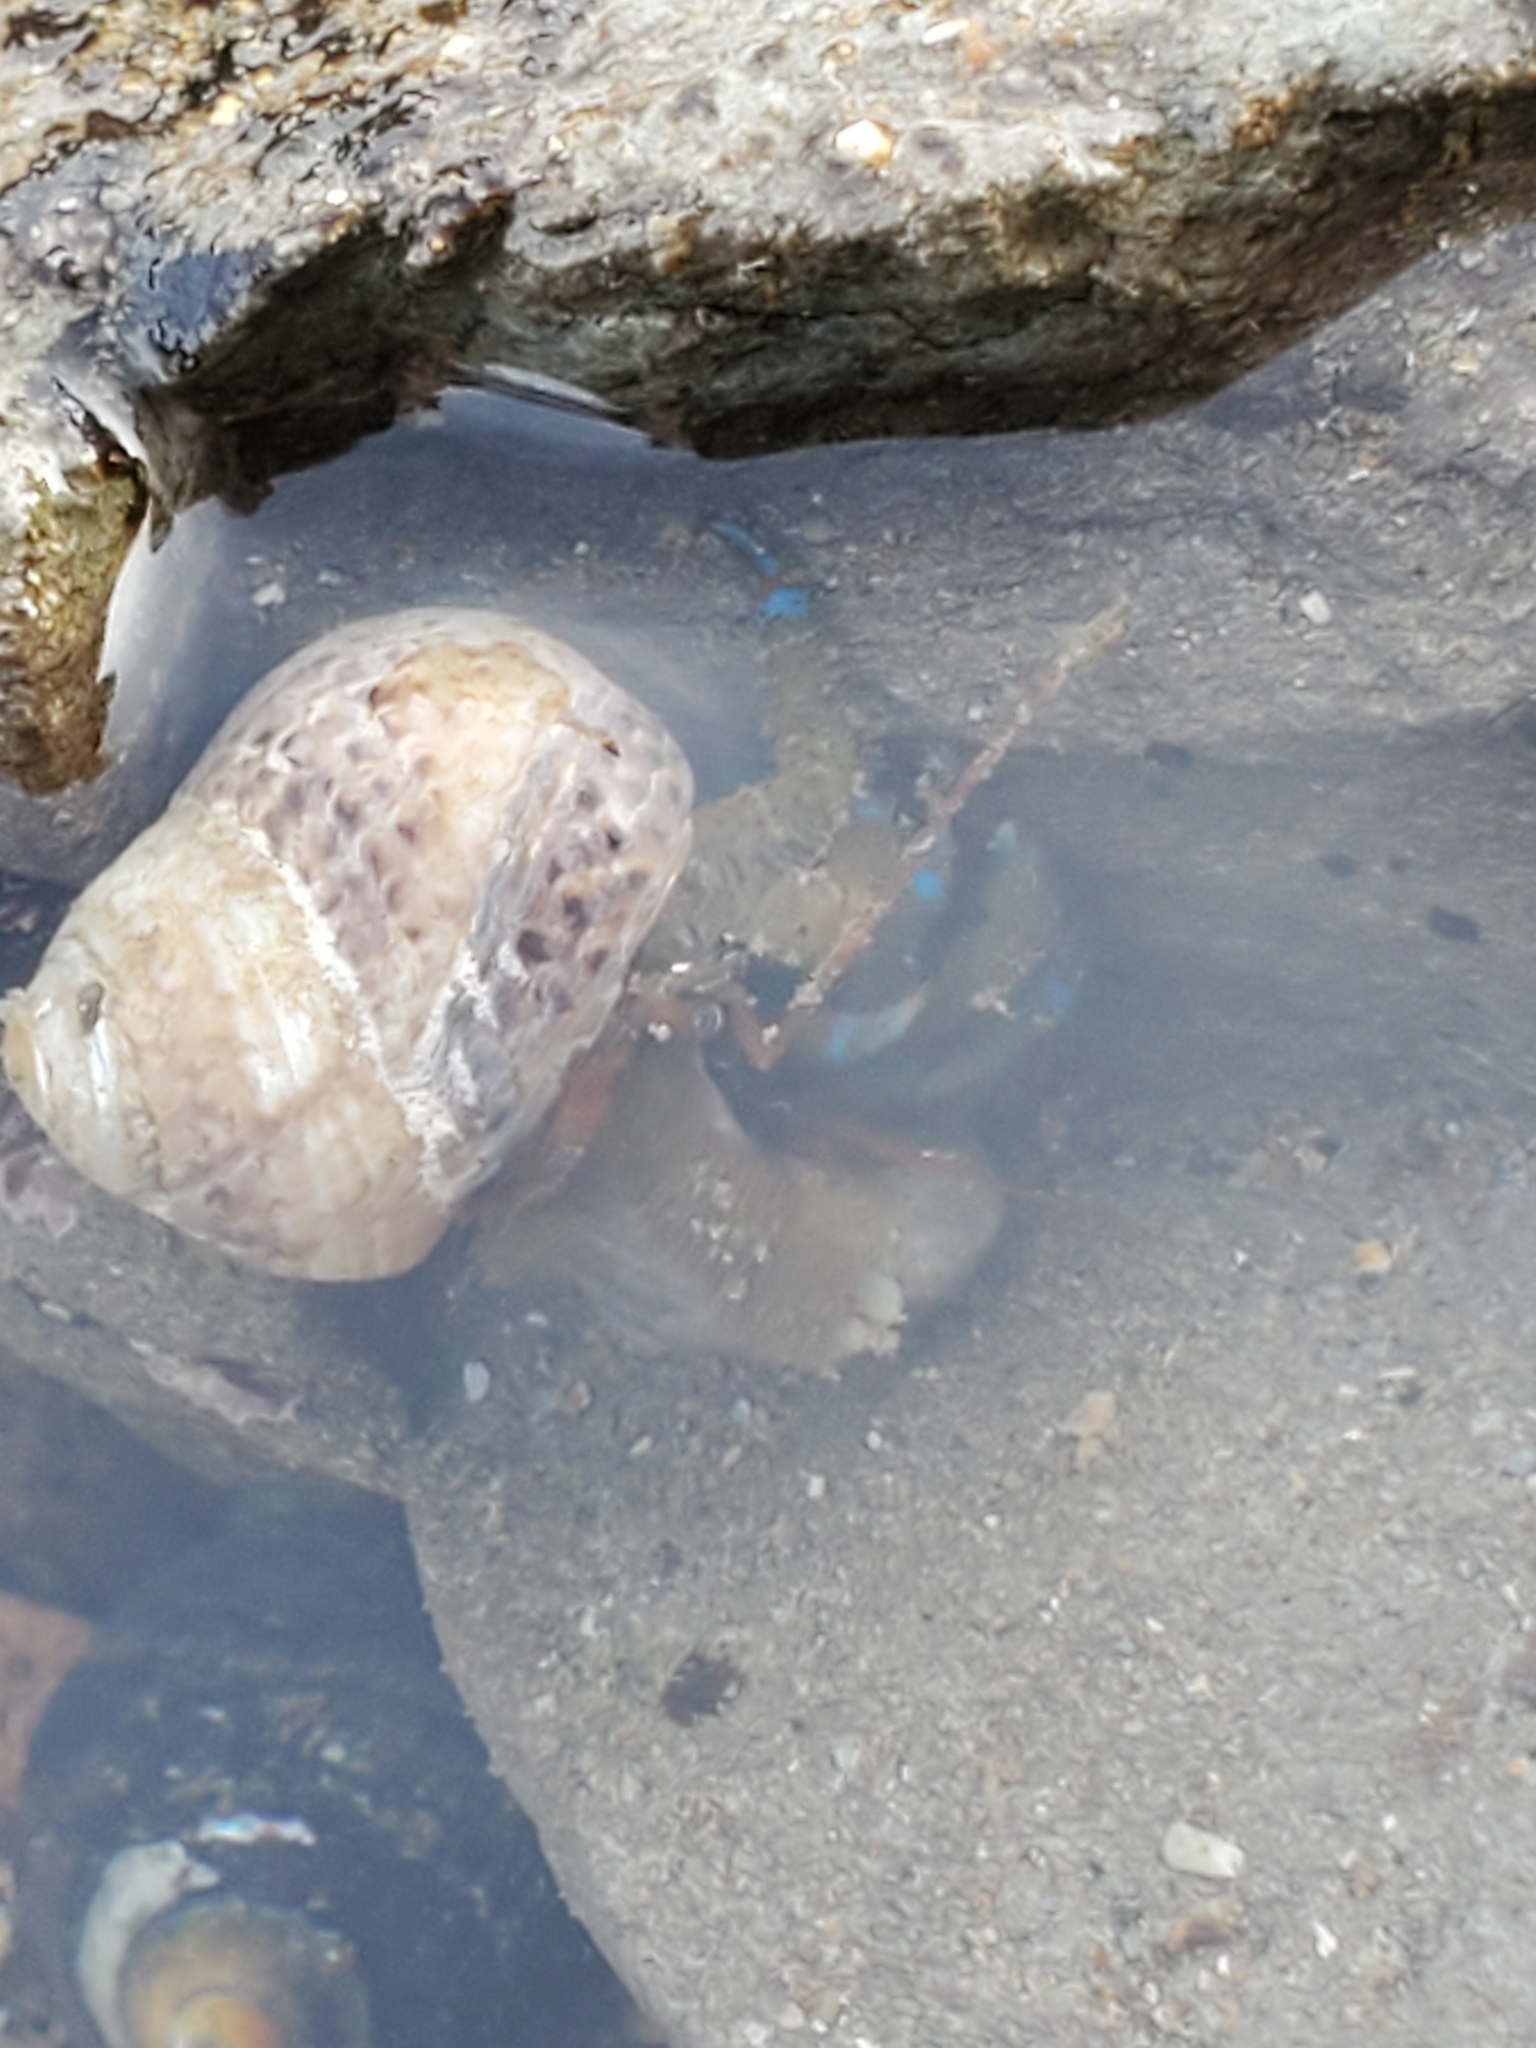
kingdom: Animalia
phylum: Arthropoda
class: Malacostraca
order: Decapoda
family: Paguridae
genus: Pagurus
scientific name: Pagurus samuelis
